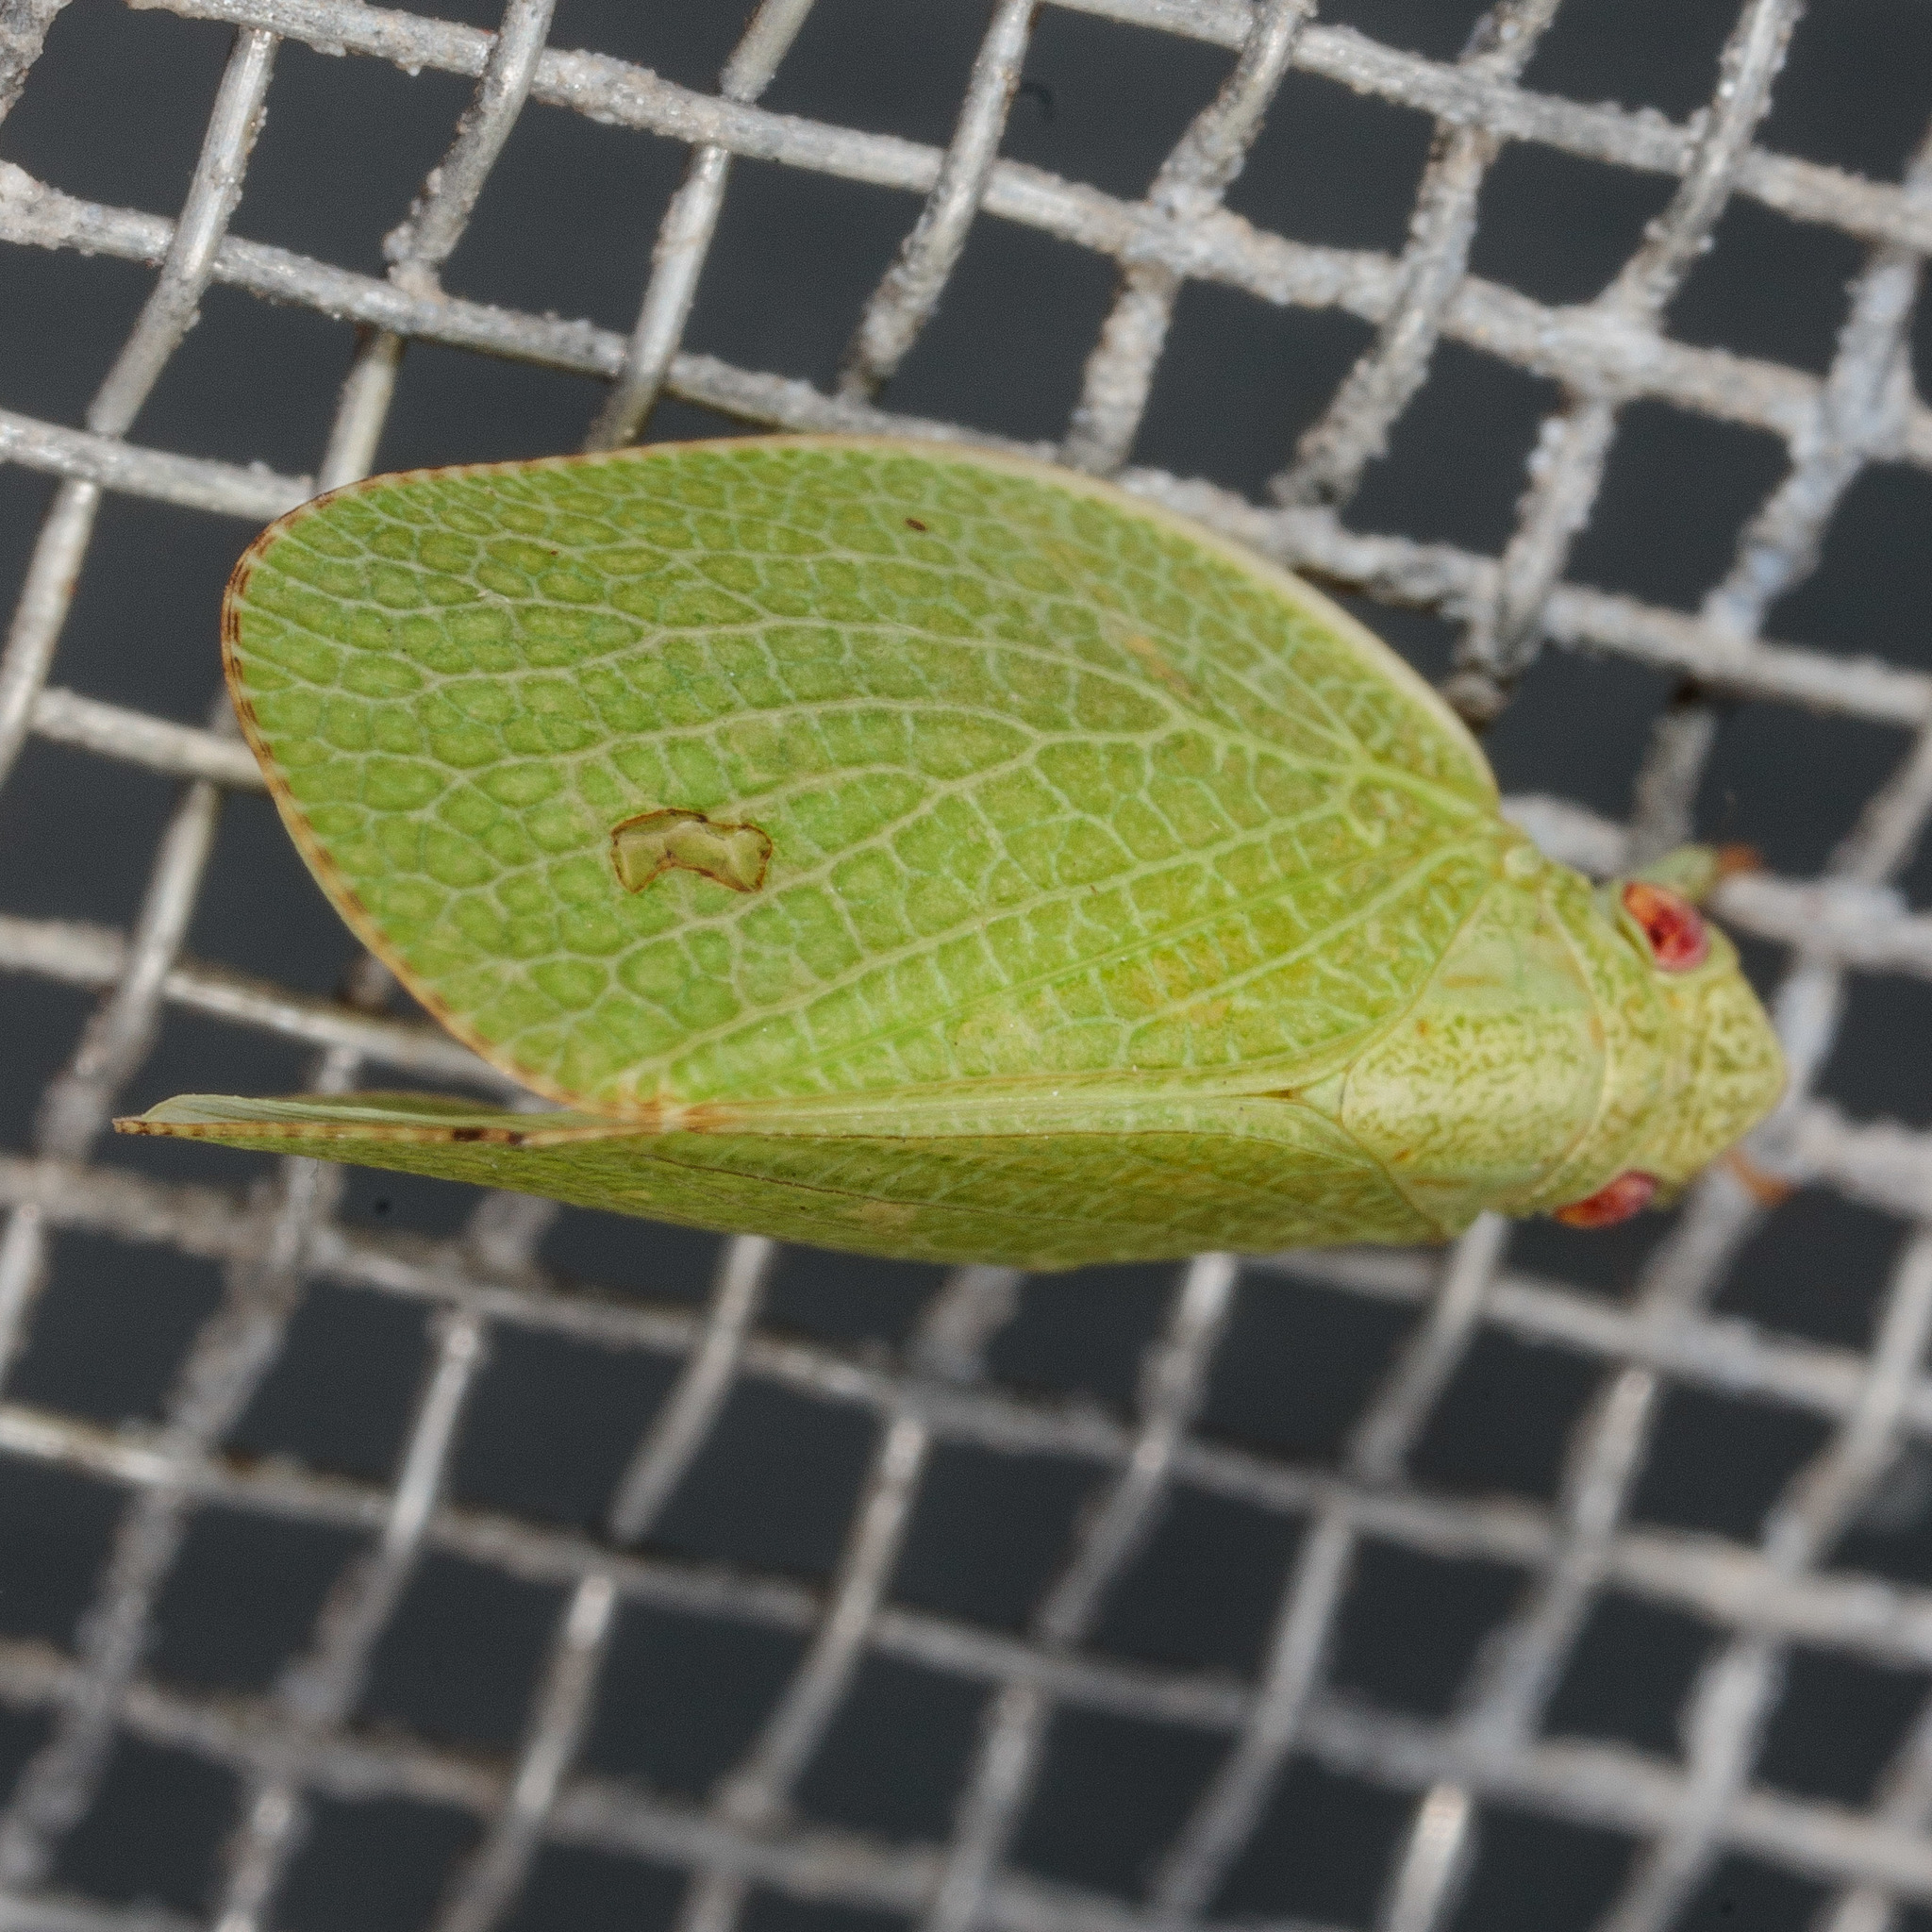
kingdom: Animalia
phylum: Arthropoda
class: Insecta
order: Hemiptera
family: Acanaloniidae
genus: Acanalonia
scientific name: Acanalonia conica
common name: Green cone-headed planthopper
